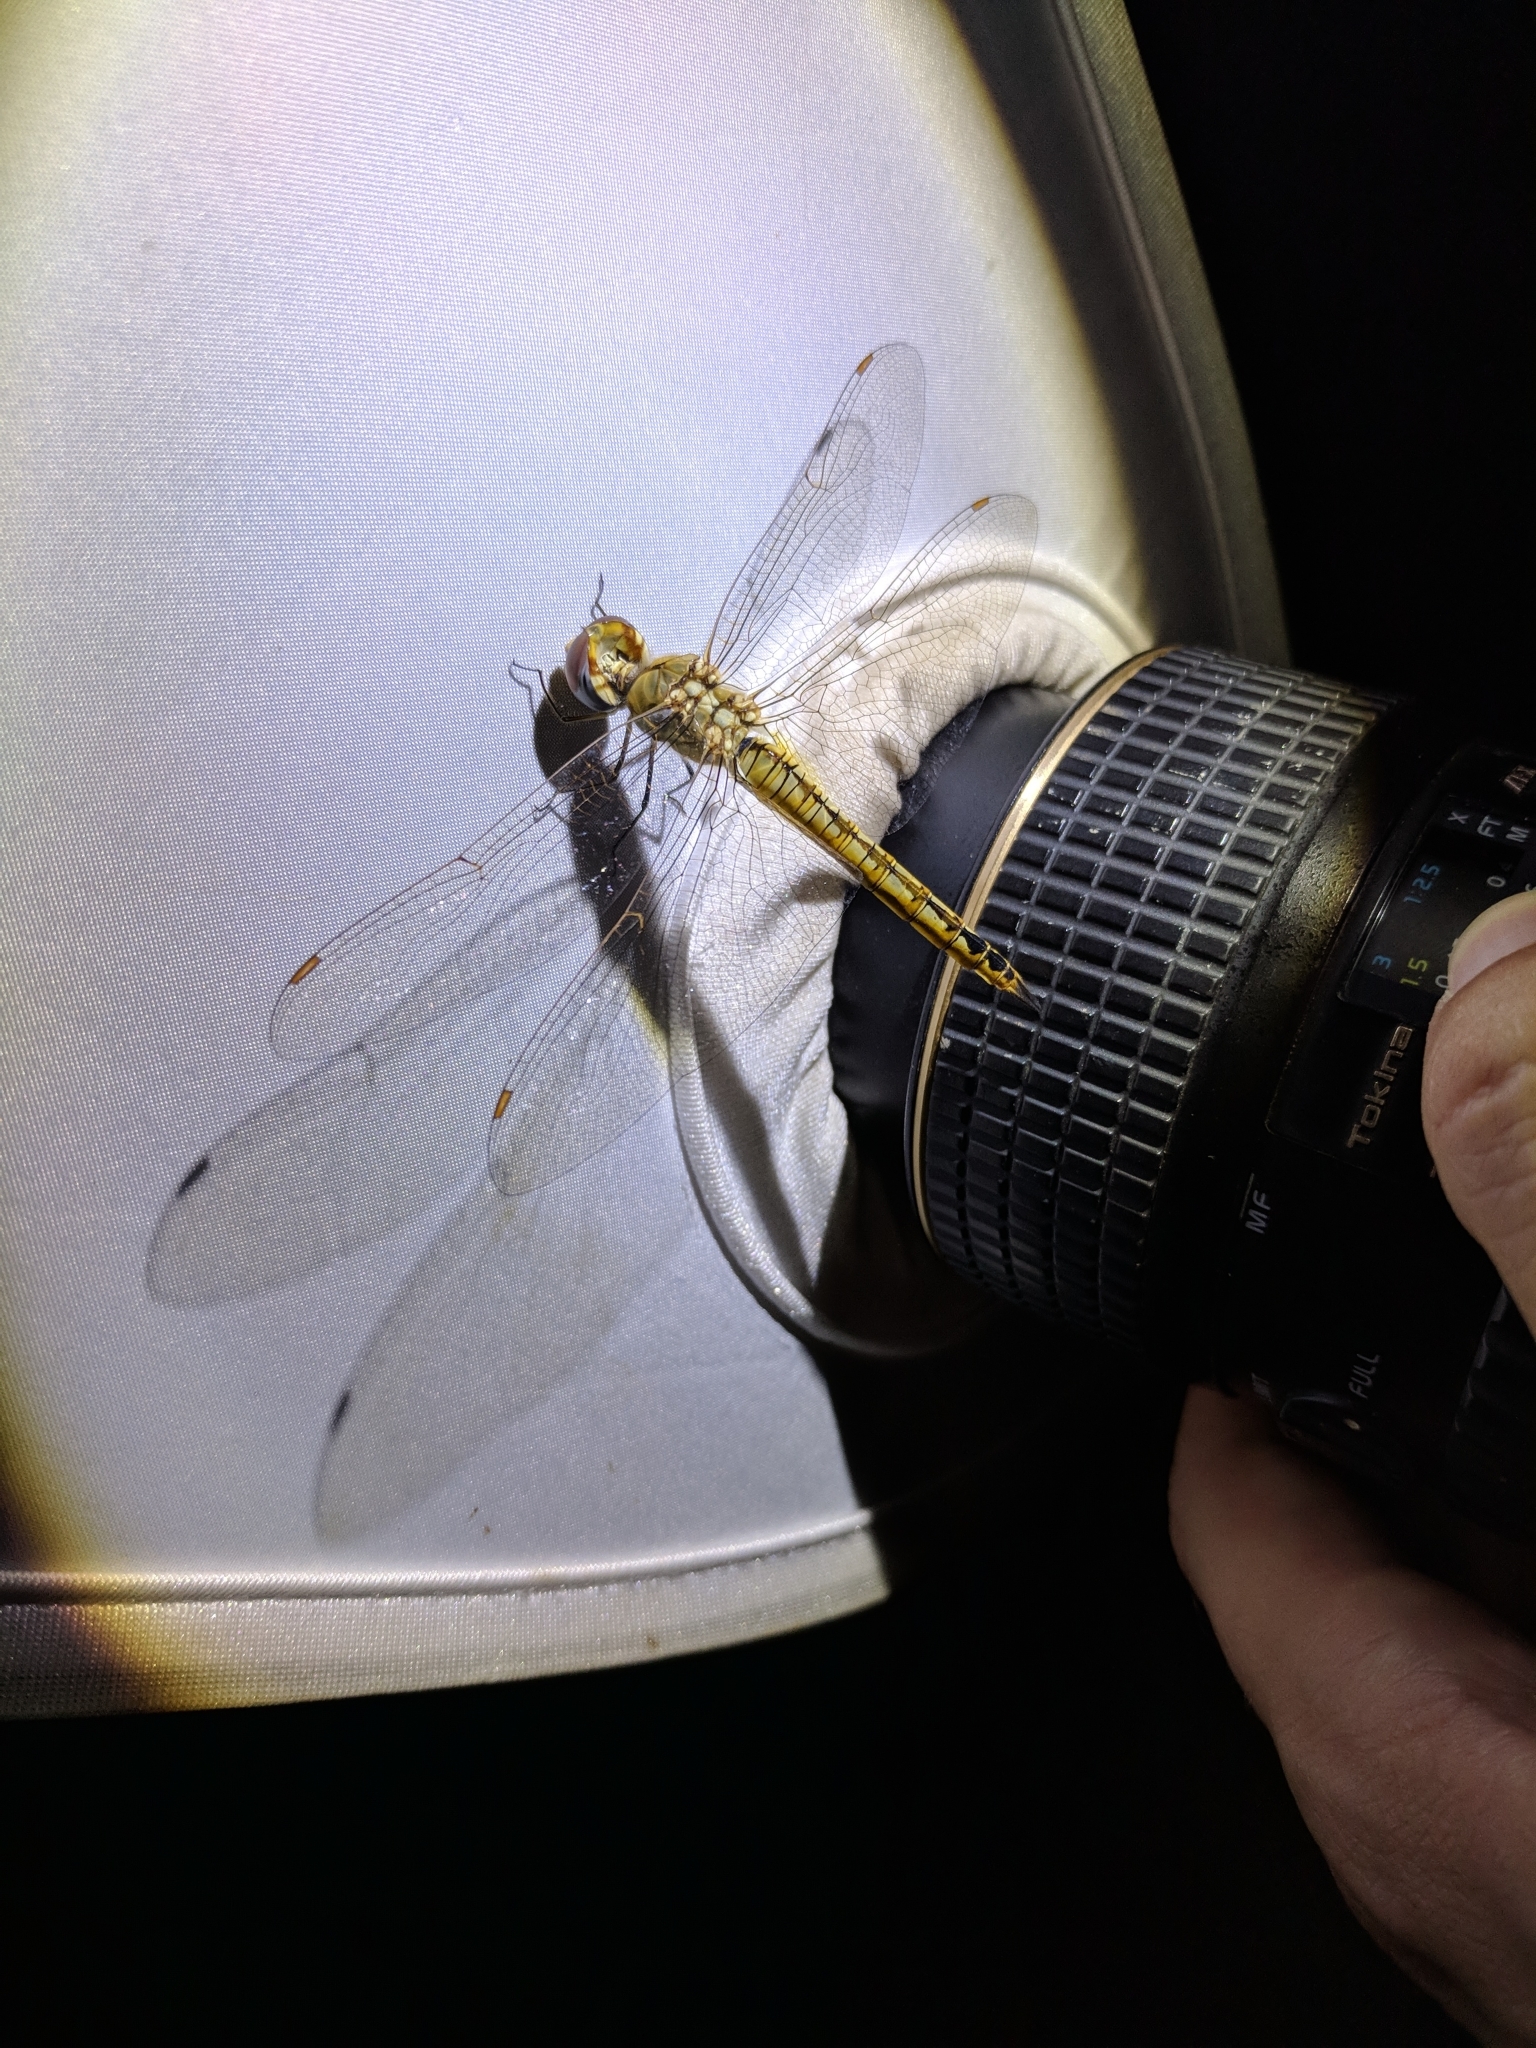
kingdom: Animalia
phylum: Arthropoda
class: Insecta
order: Odonata
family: Libellulidae
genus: Pantala
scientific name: Pantala flavescens
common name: Wandering glider
